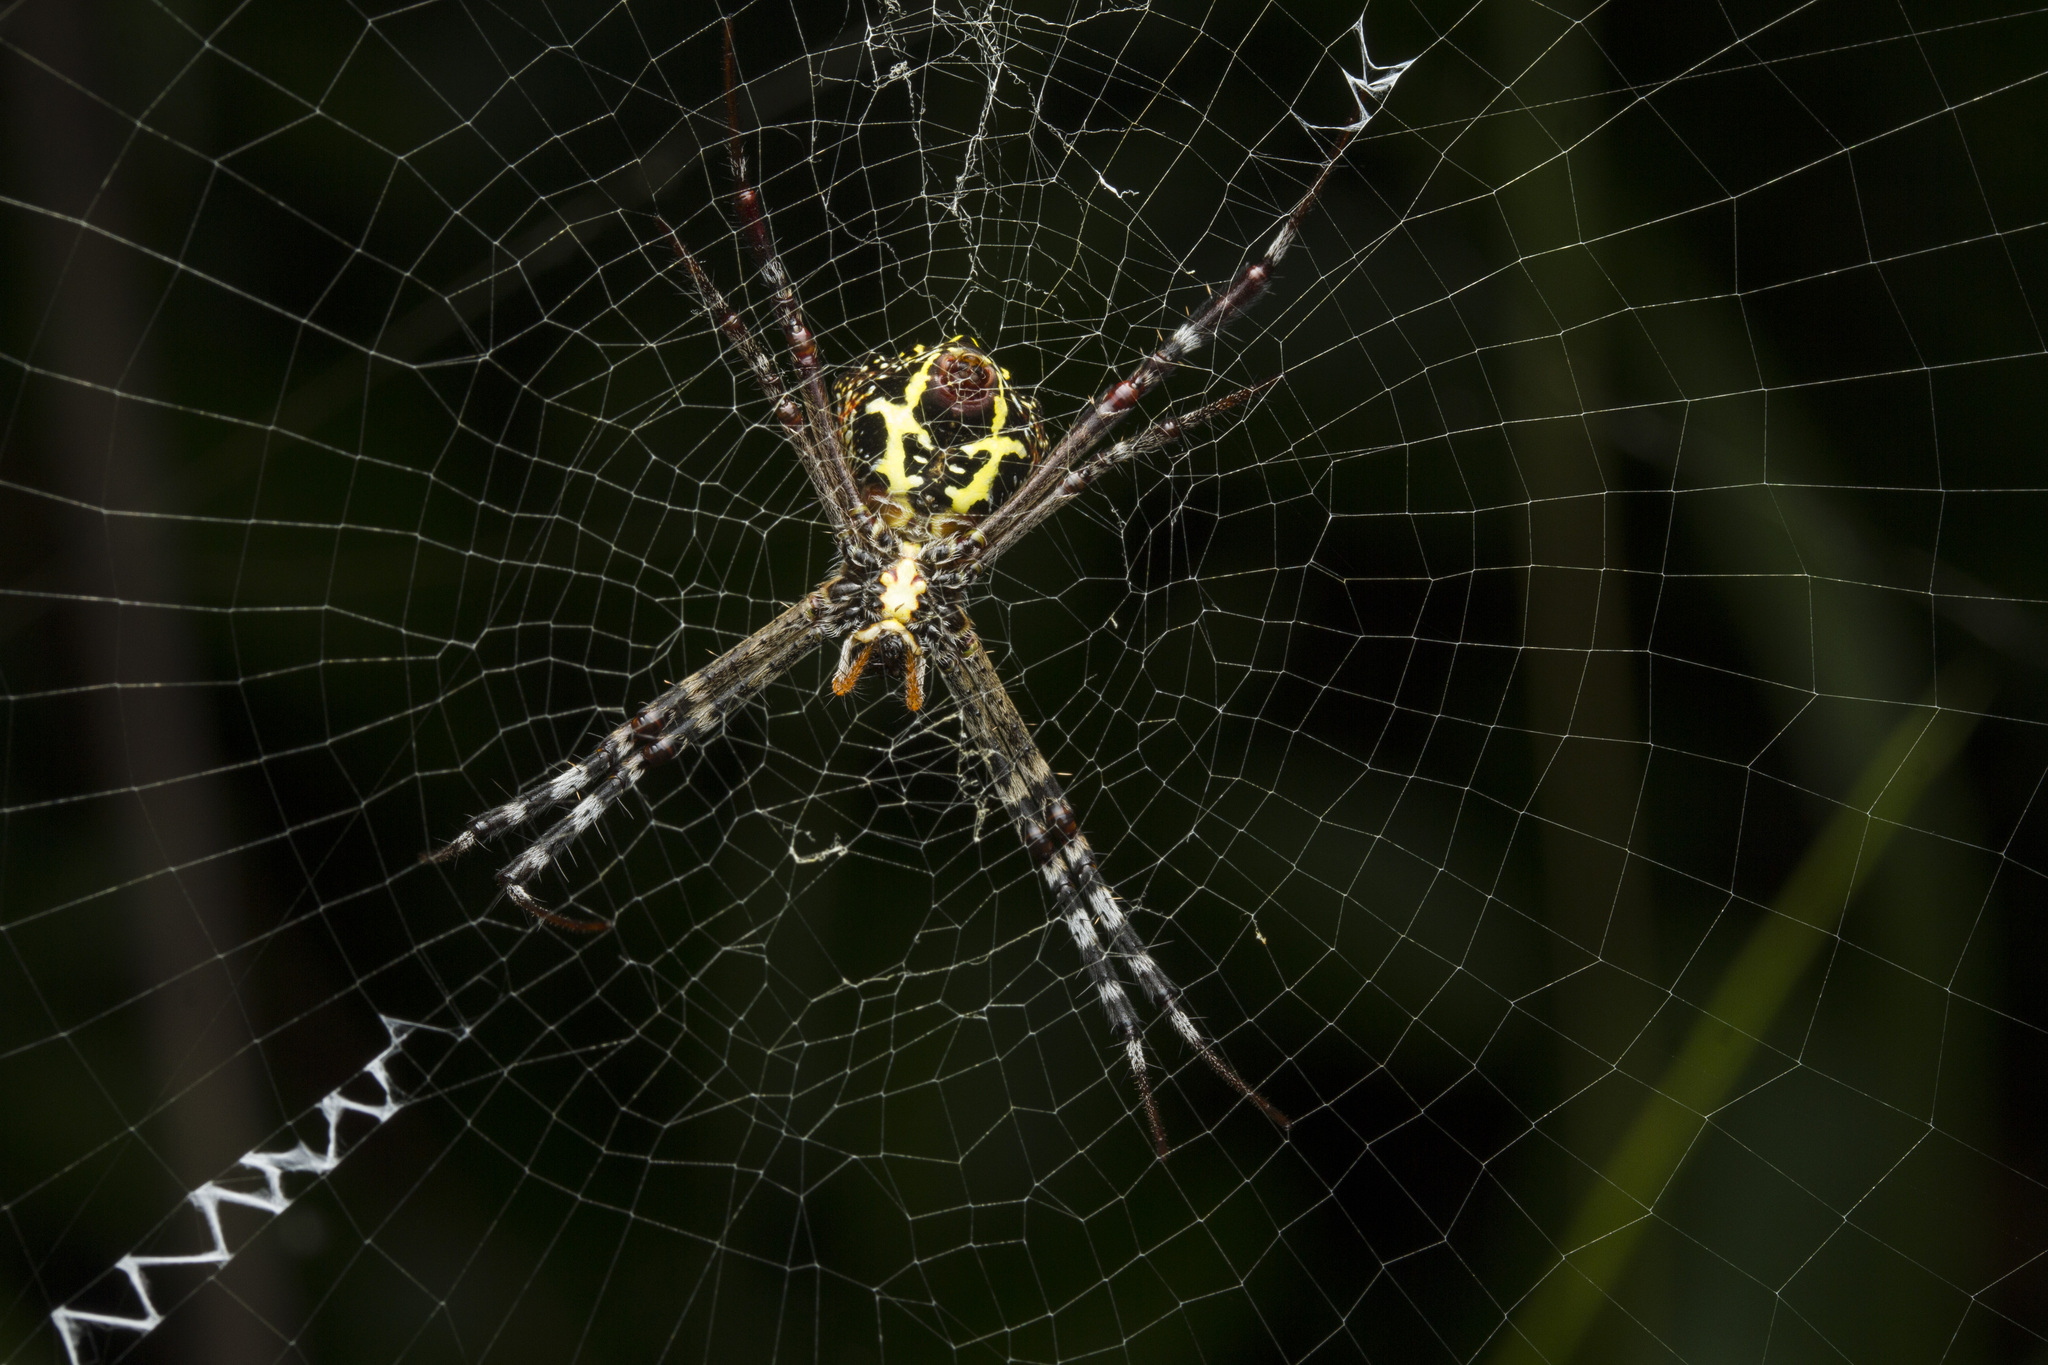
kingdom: Animalia
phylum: Arthropoda
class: Arachnida
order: Araneae
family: Araneidae
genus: Argiope
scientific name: Argiope anasuja
